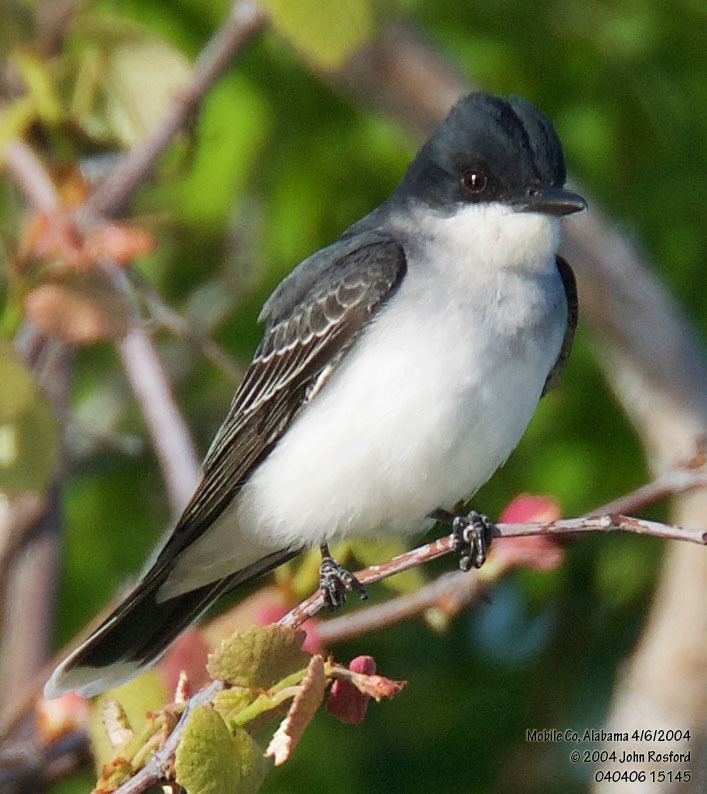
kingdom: Animalia
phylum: Chordata
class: Aves
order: Passeriformes
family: Tyrannidae
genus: Tyrannus
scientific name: Tyrannus tyrannus
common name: Eastern kingbird
